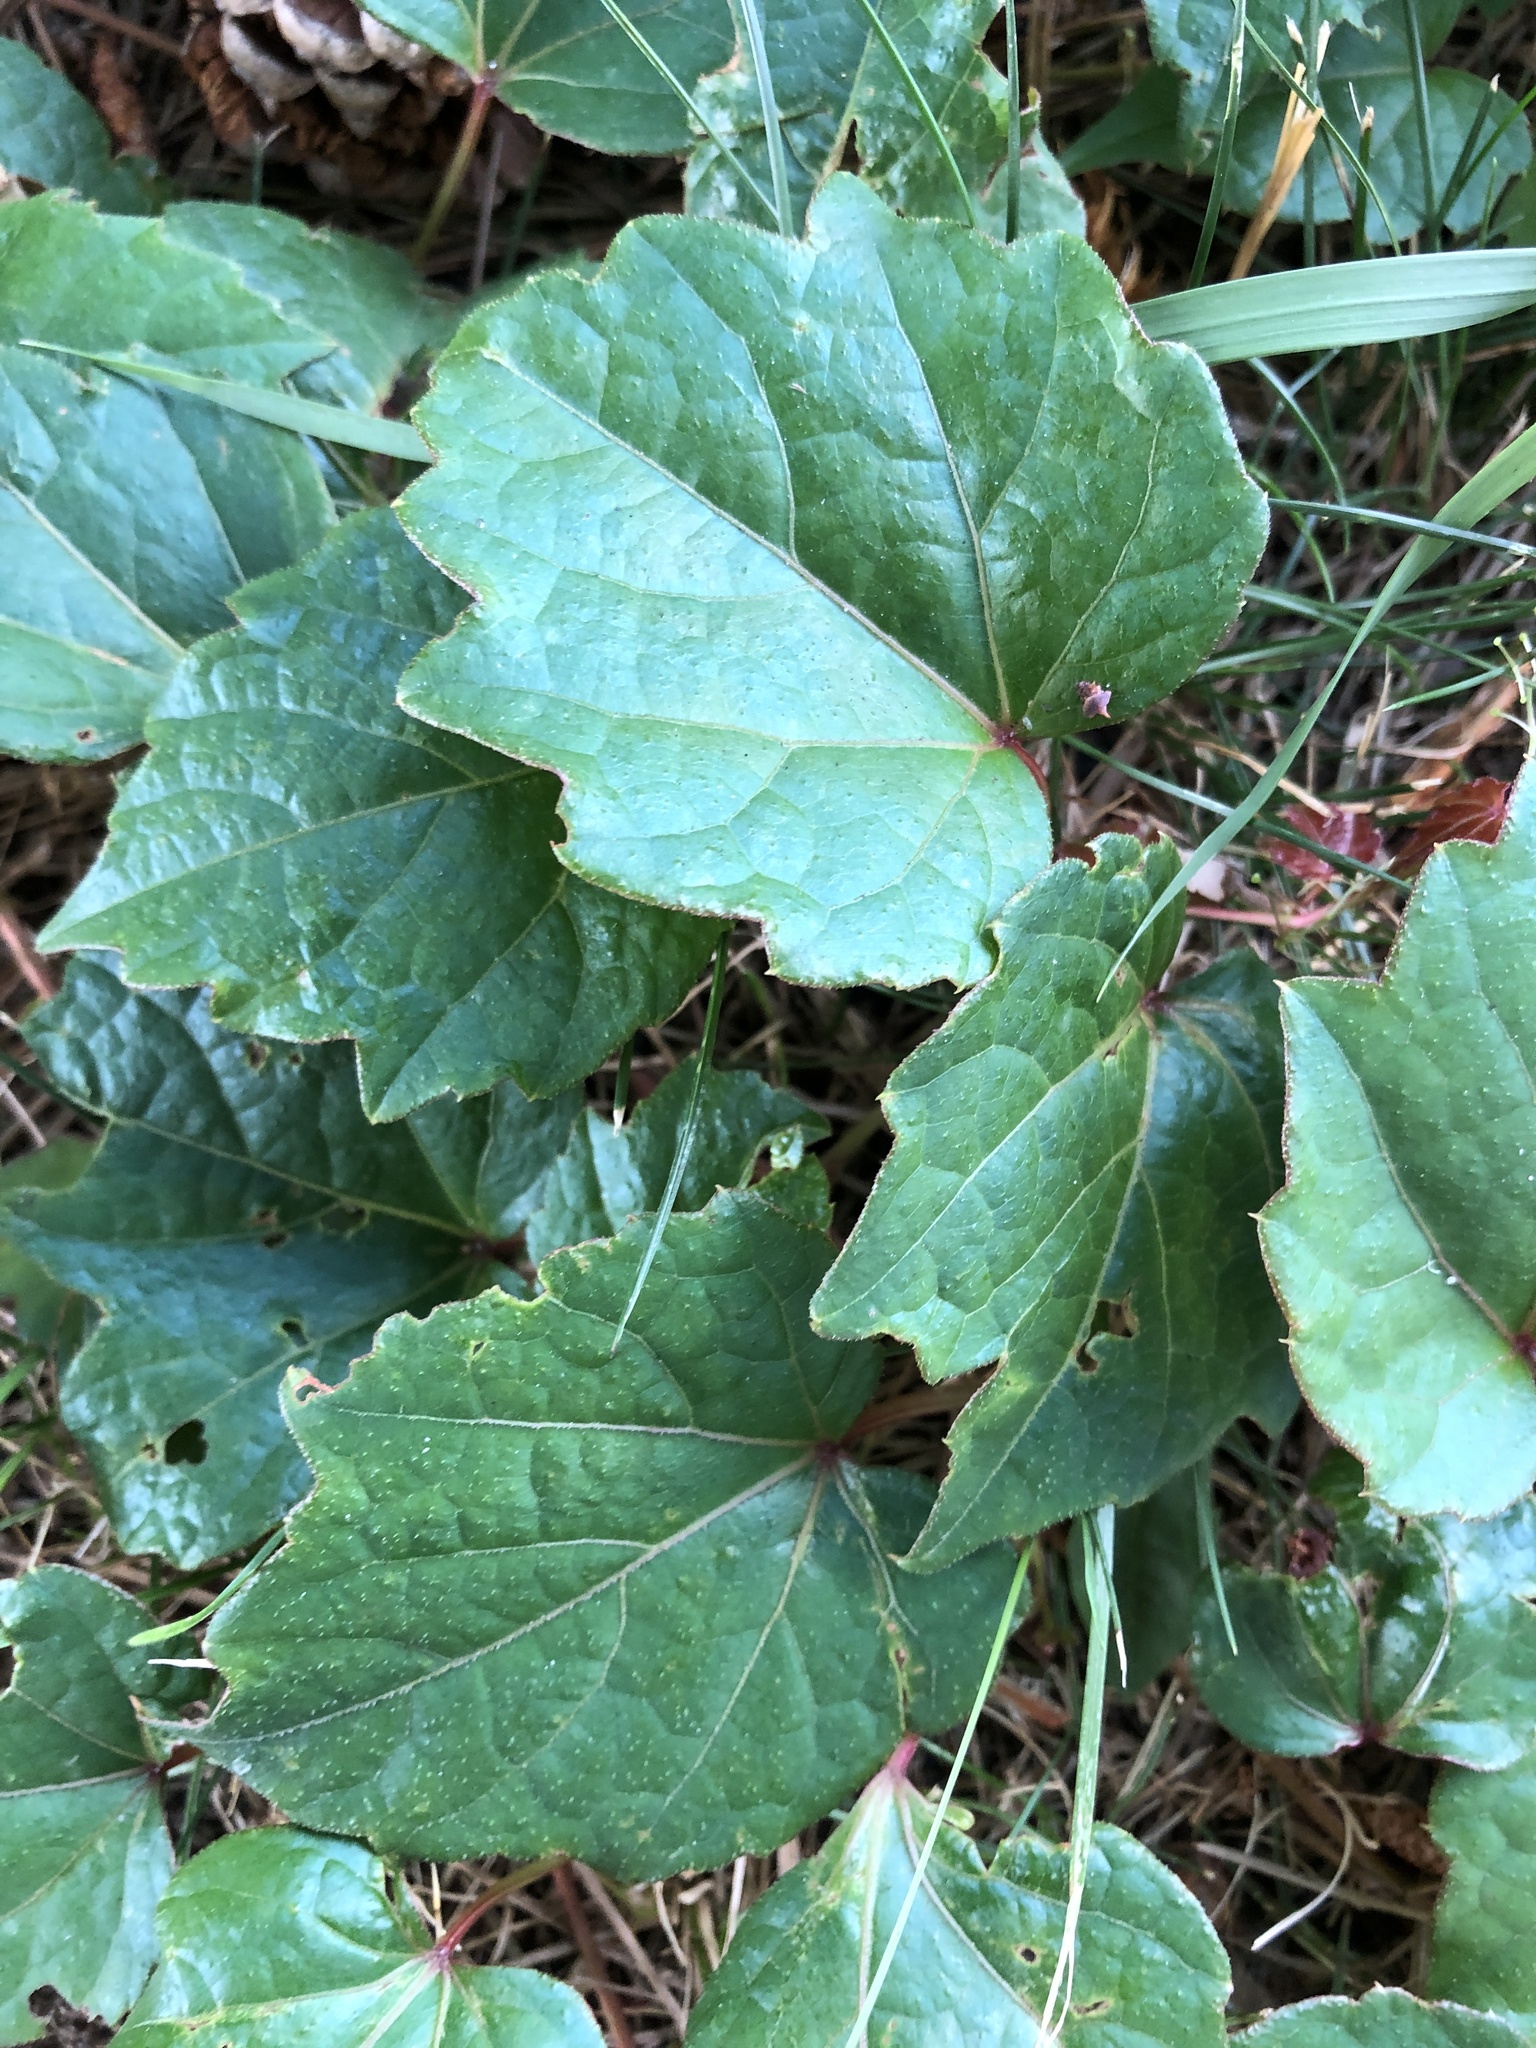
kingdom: Plantae
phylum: Tracheophyta
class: Magnoliopsida
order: Vitales
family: Vitaceae
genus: Parthenocissus
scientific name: Parthenocissus tricuspidata
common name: Boston ivy
